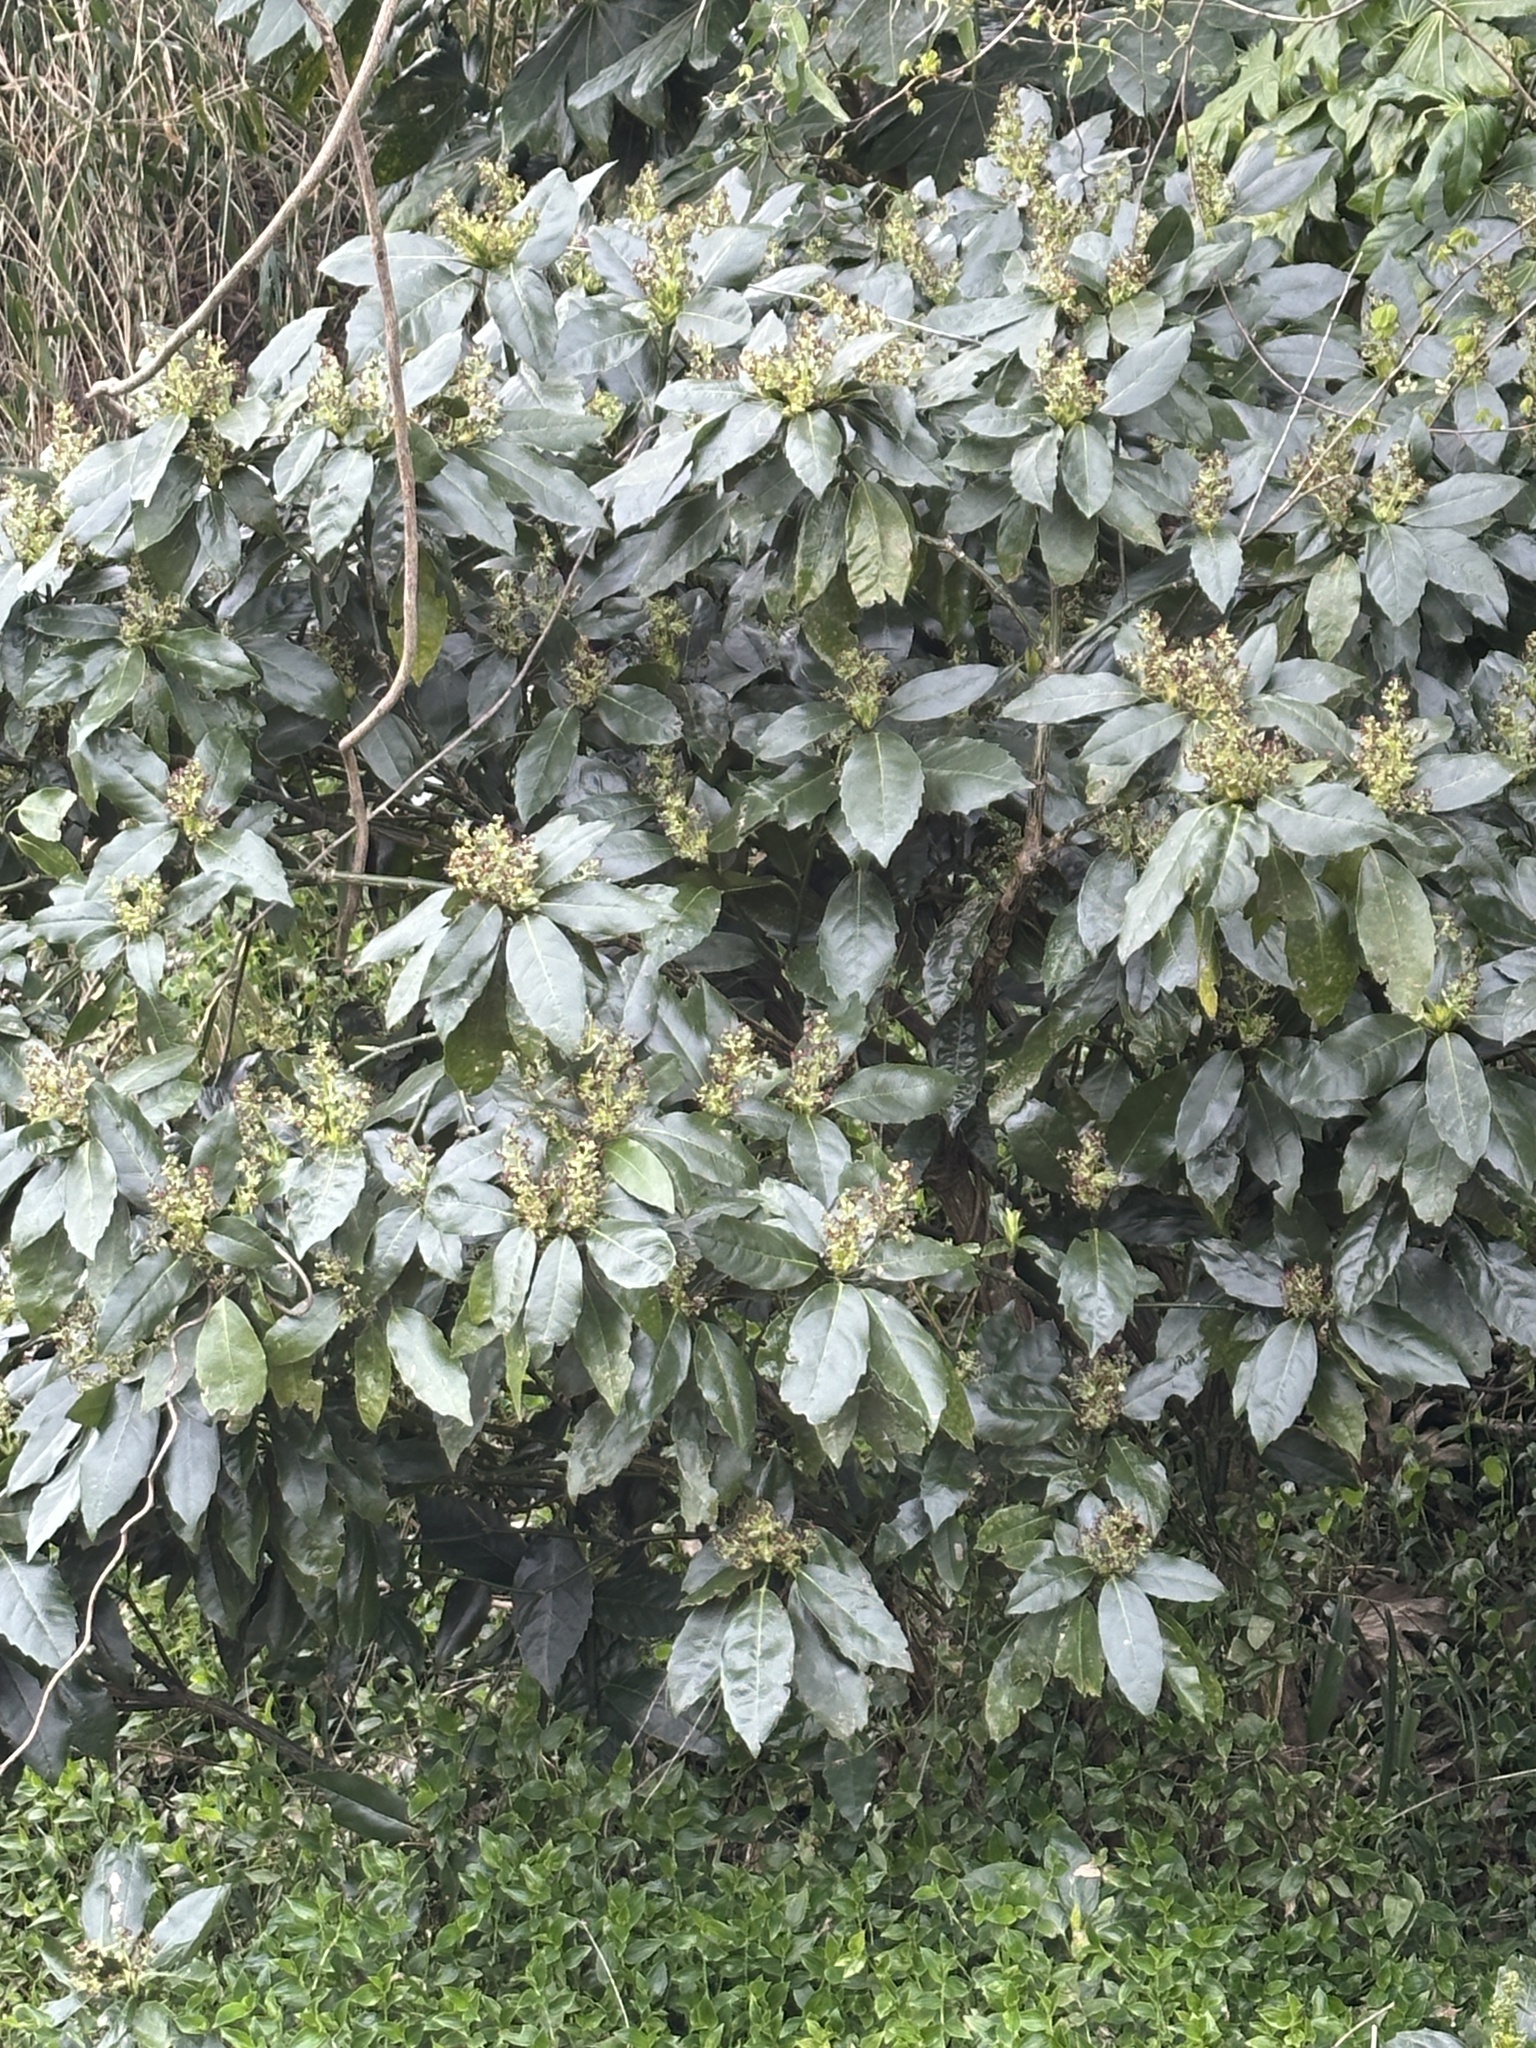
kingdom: Plantae
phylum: Tracheophyta
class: Magnoliopsida
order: Garryales
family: Garryaceae
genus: Aucuba
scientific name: Aucuba japonica
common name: Spotted-laurel
